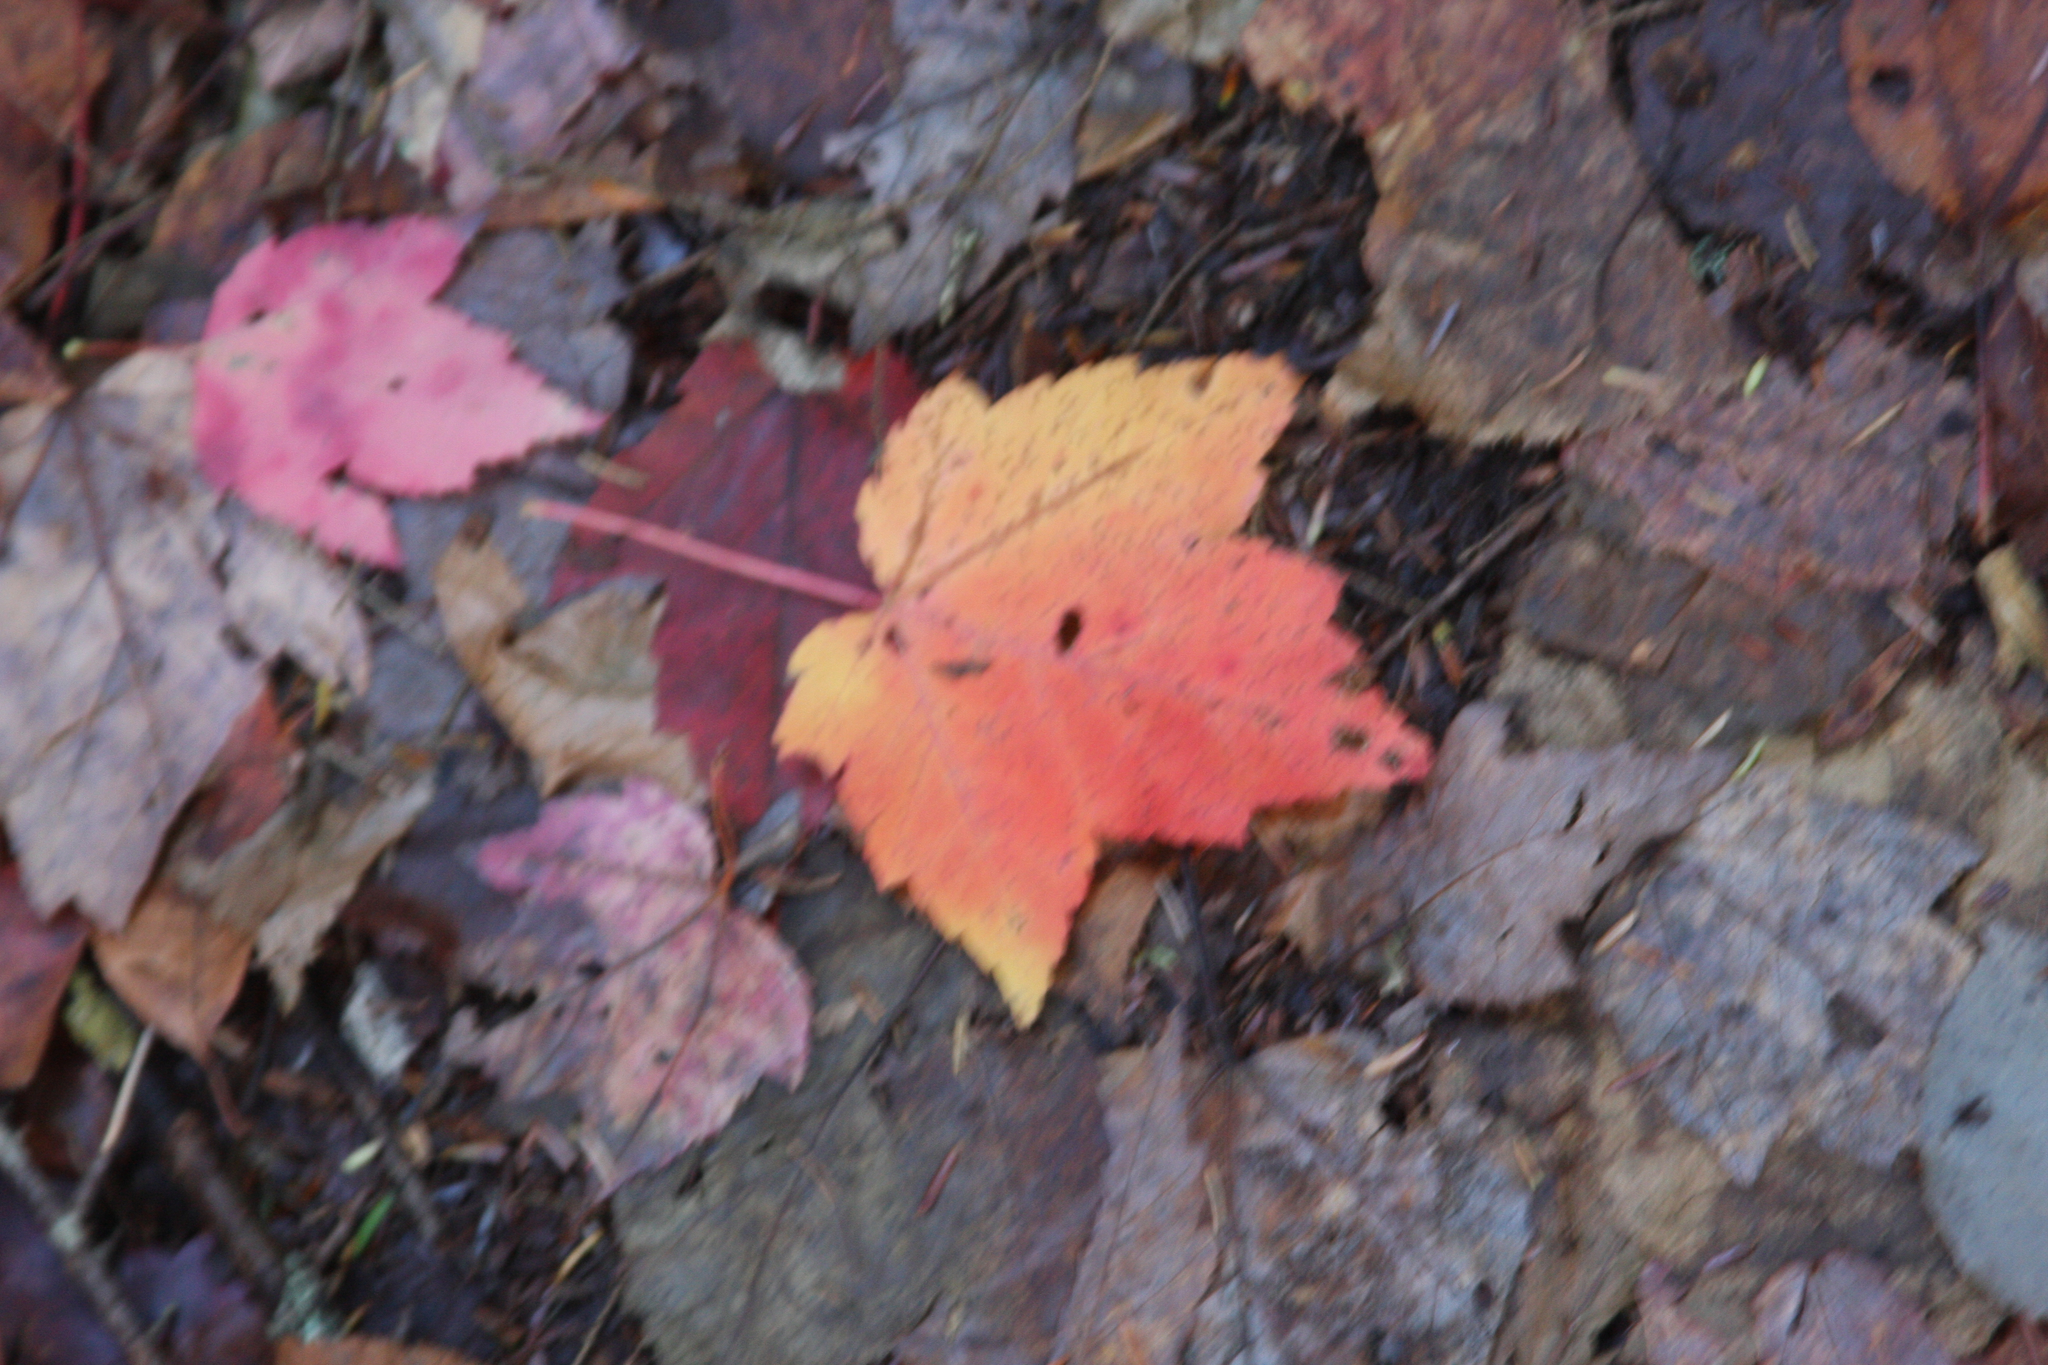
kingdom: Plantae
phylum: Tracheophyta
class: Magnoliopsida
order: Sapindales
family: Sapindaceae
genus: Acer
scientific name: Acer rubrum
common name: Red maple
